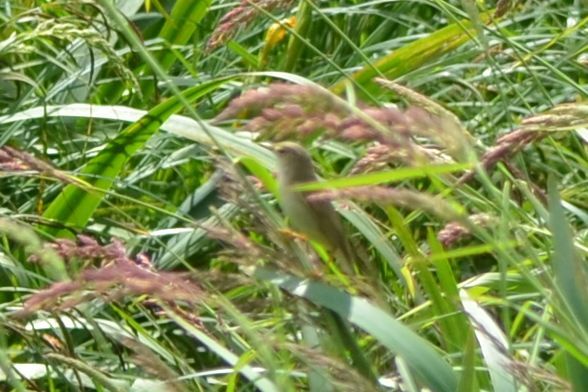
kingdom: Animalia
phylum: Chordata
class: Aves
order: Passeriformes
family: Acrocephalidae
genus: Acrocephalus
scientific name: Acrocephalus scirpaceus
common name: Eurasian reed warbler
